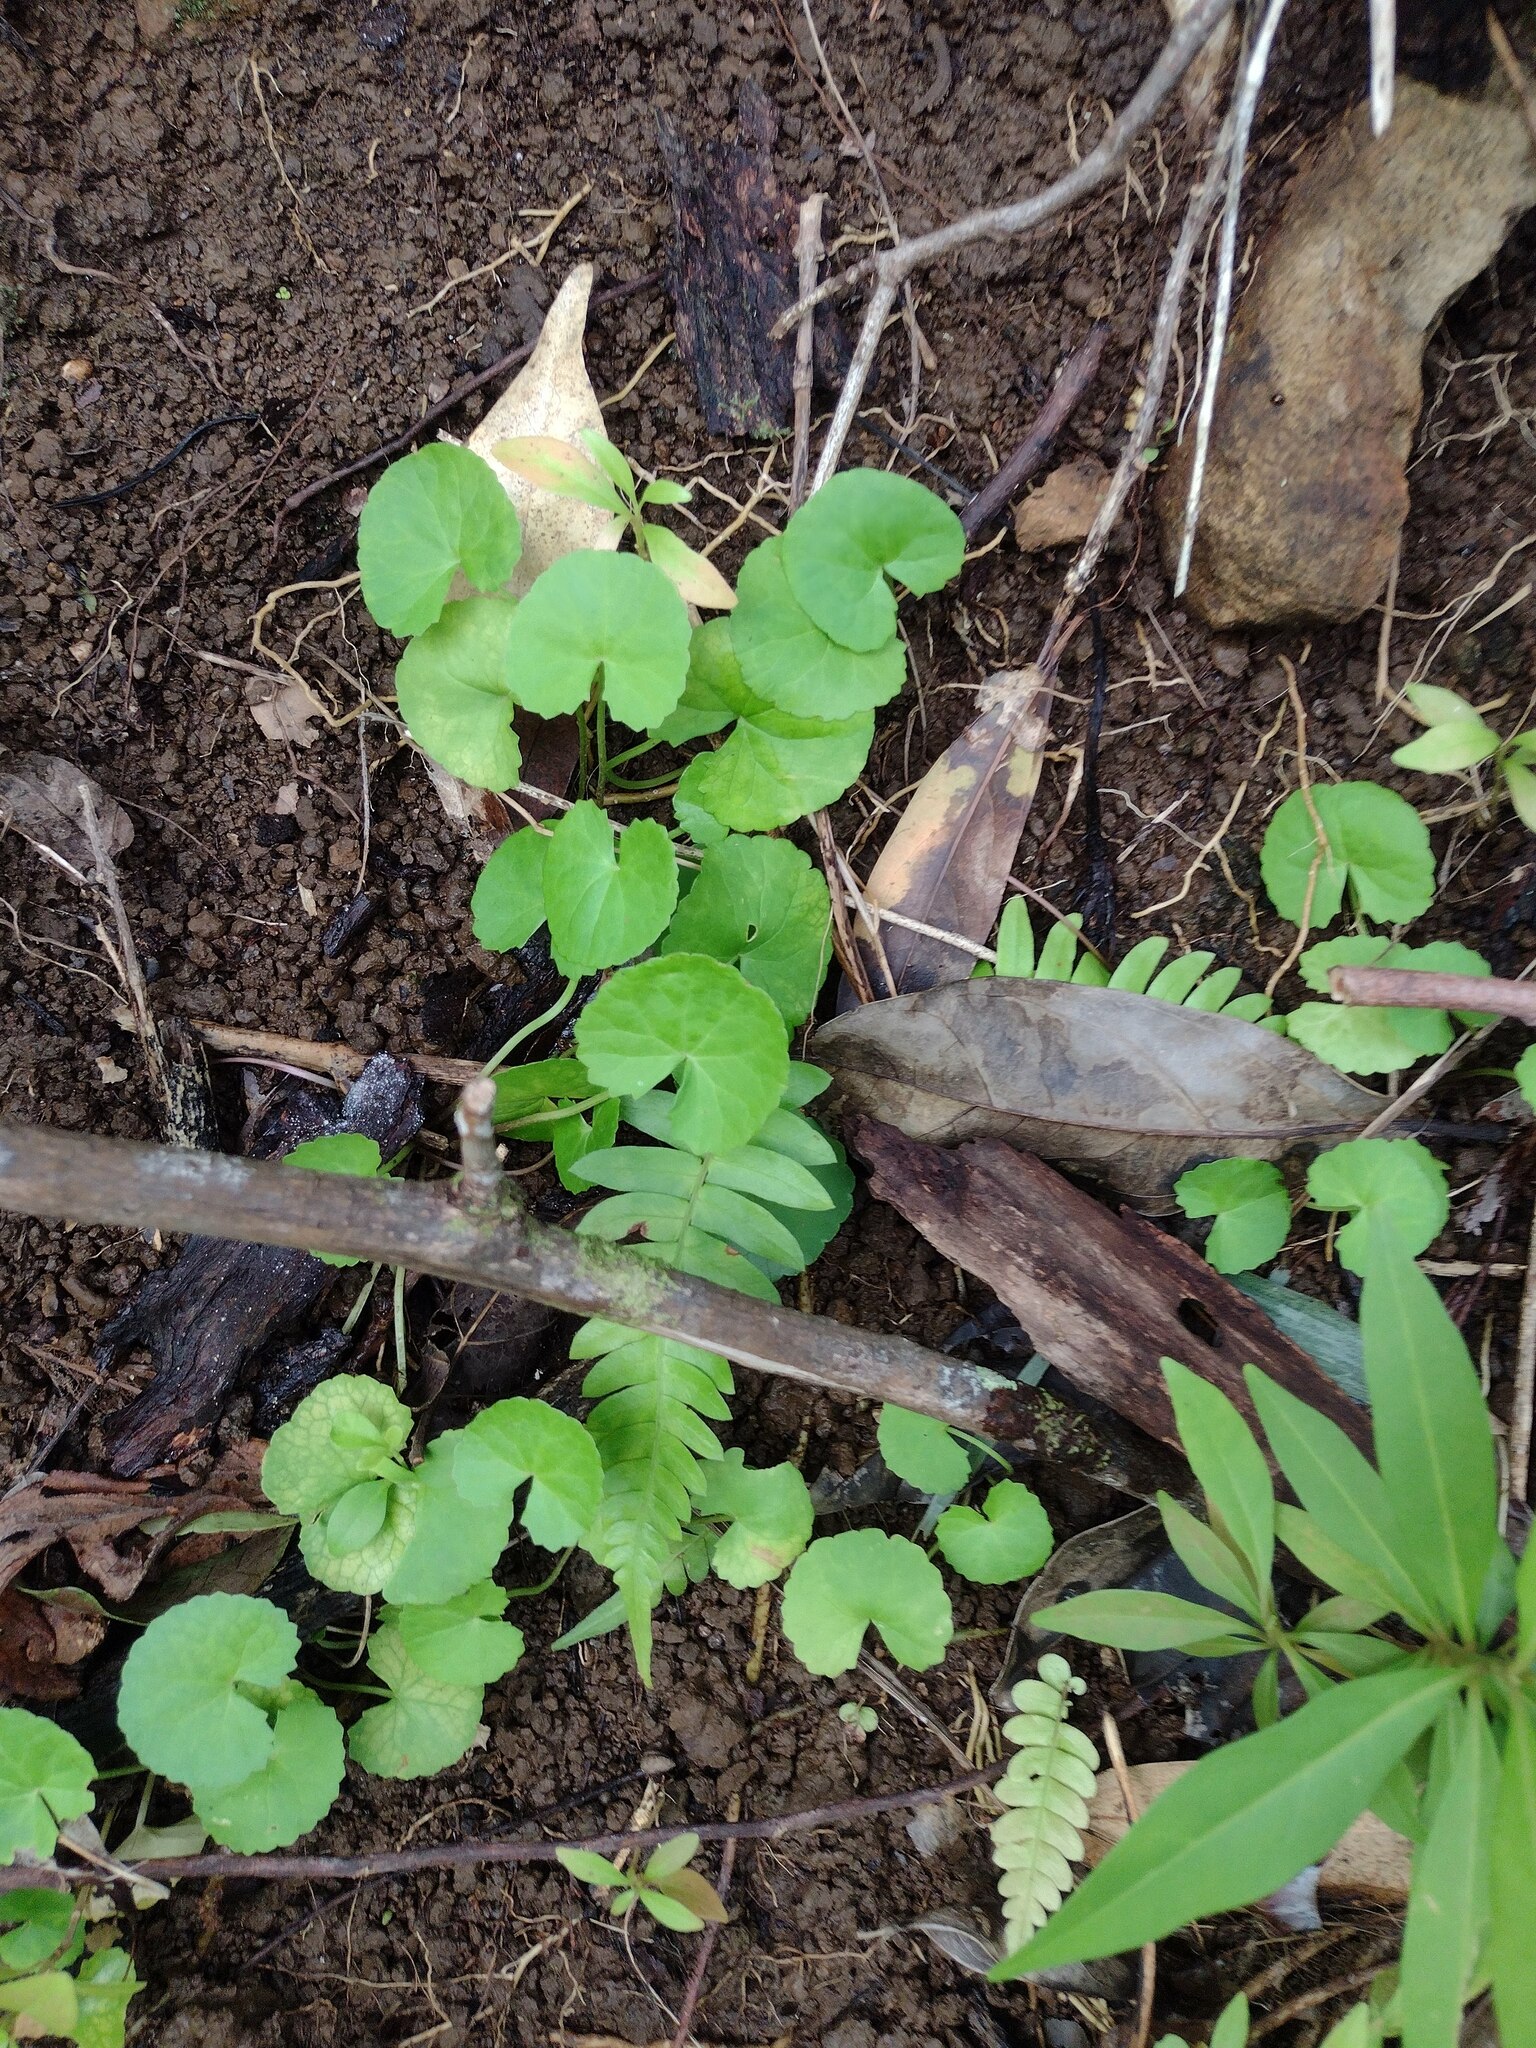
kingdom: Plantae
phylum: Tracheophyta
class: Magnoliopsida
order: Apiales
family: Apiaceae
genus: Centella
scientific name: Centella asiatica
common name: Spadeleaf
